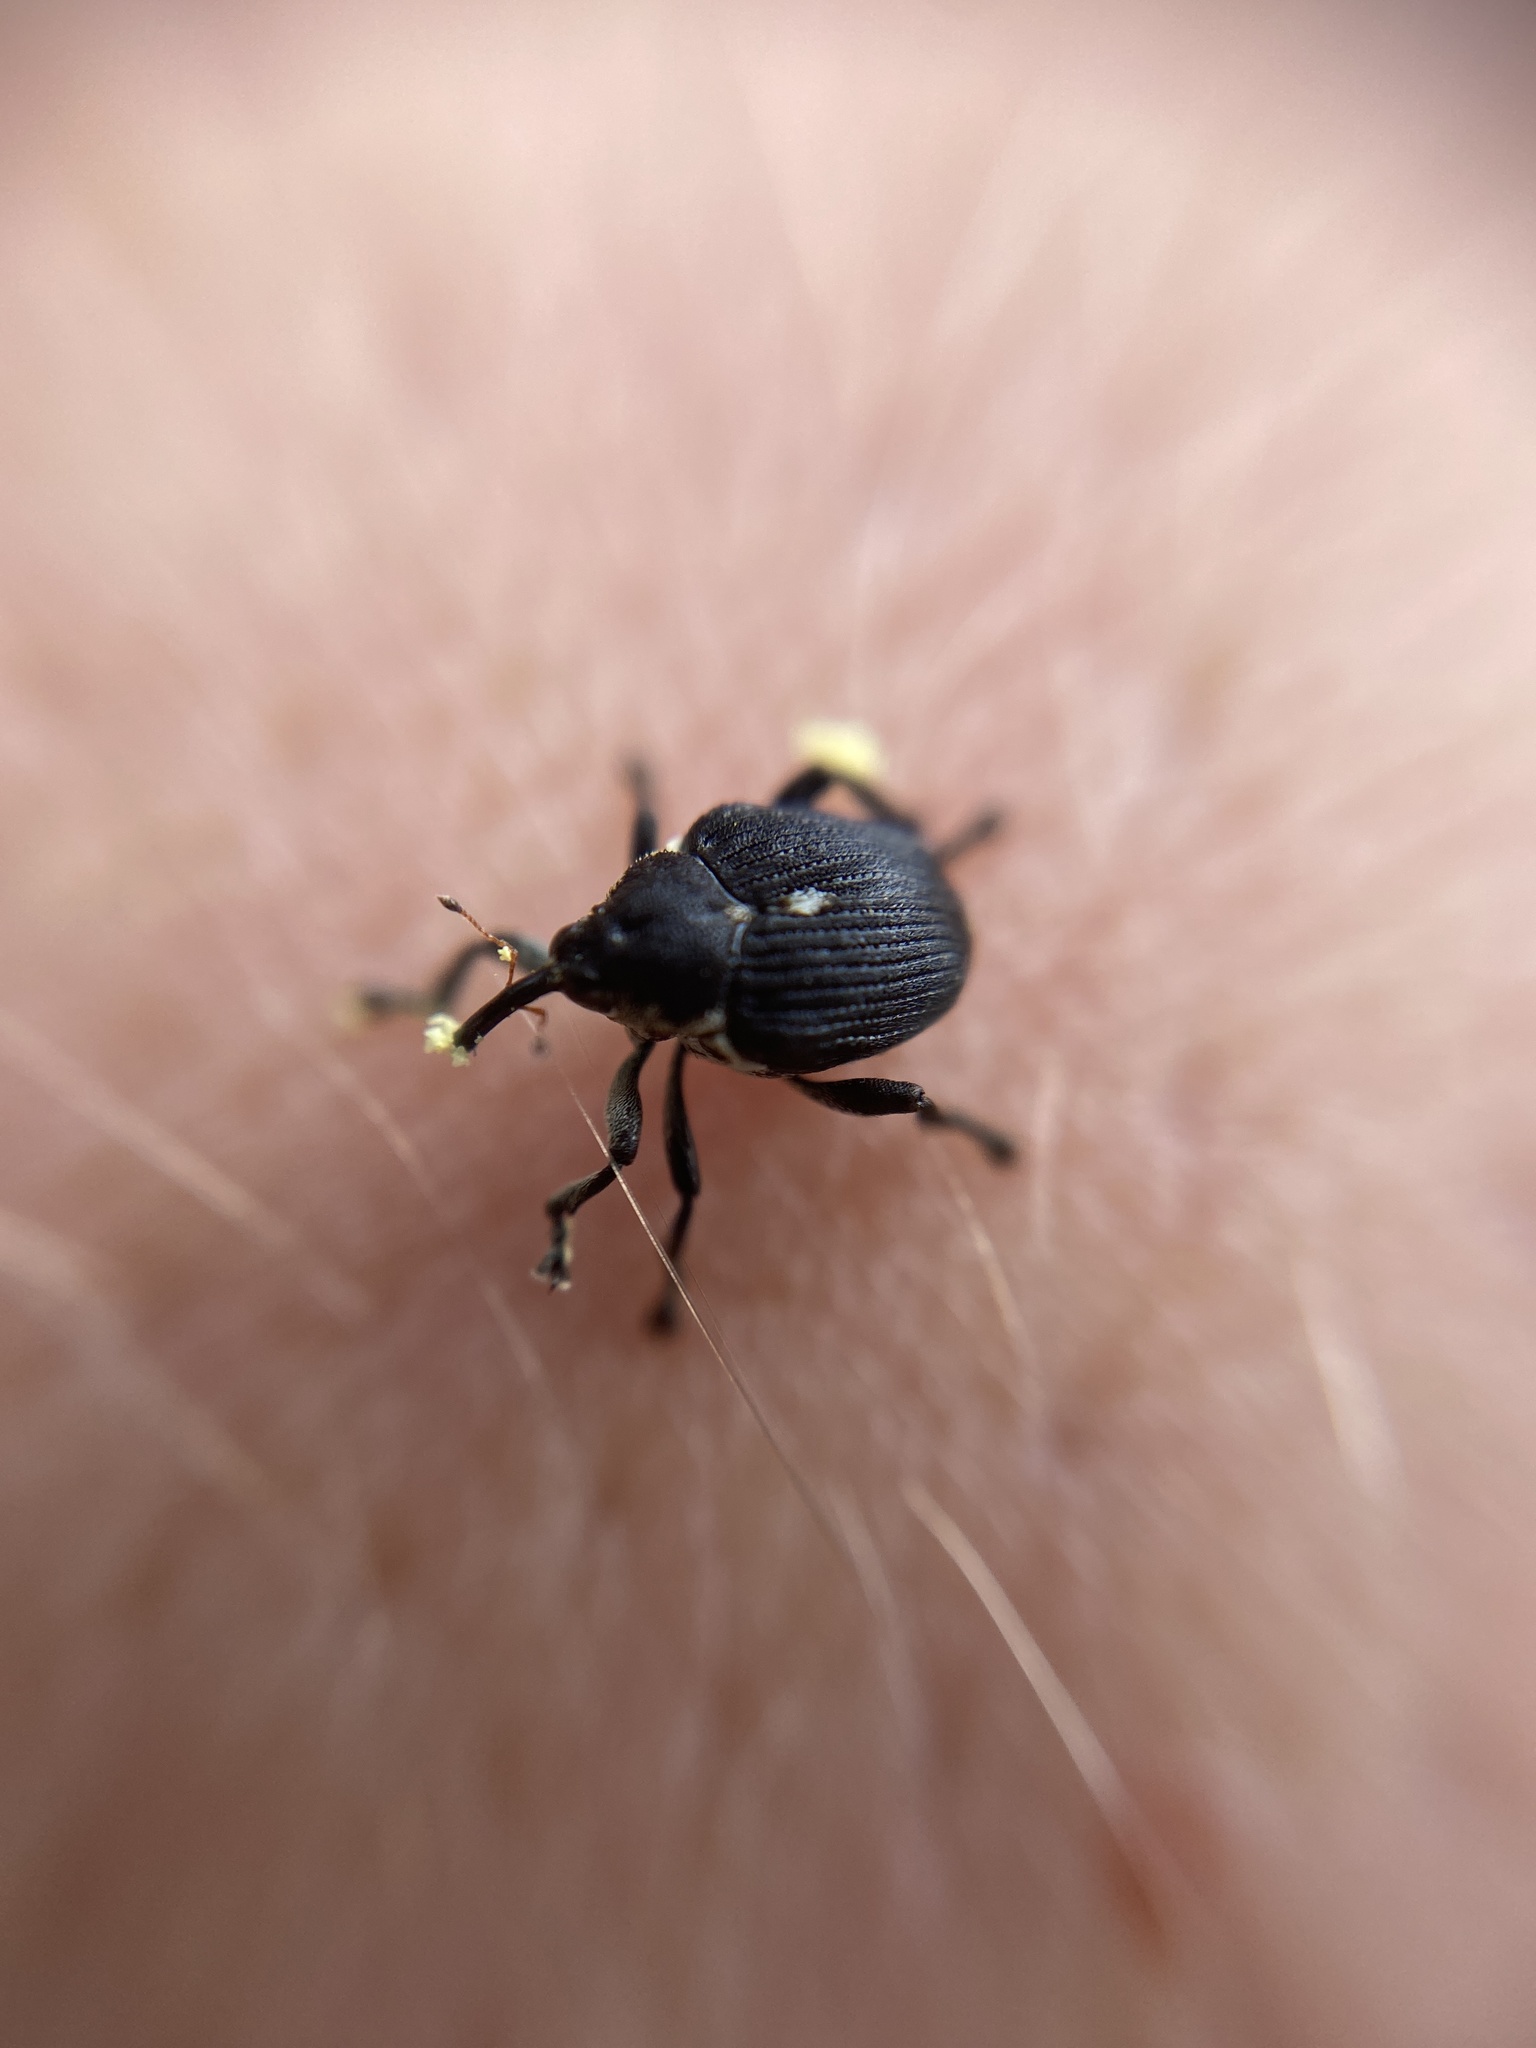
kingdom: Animalia
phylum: Arthropoda
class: Insecta
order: Coleoptera
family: Curculionidae
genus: Mononychus
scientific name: Mononychus punctumalbum
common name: Iris weevil
